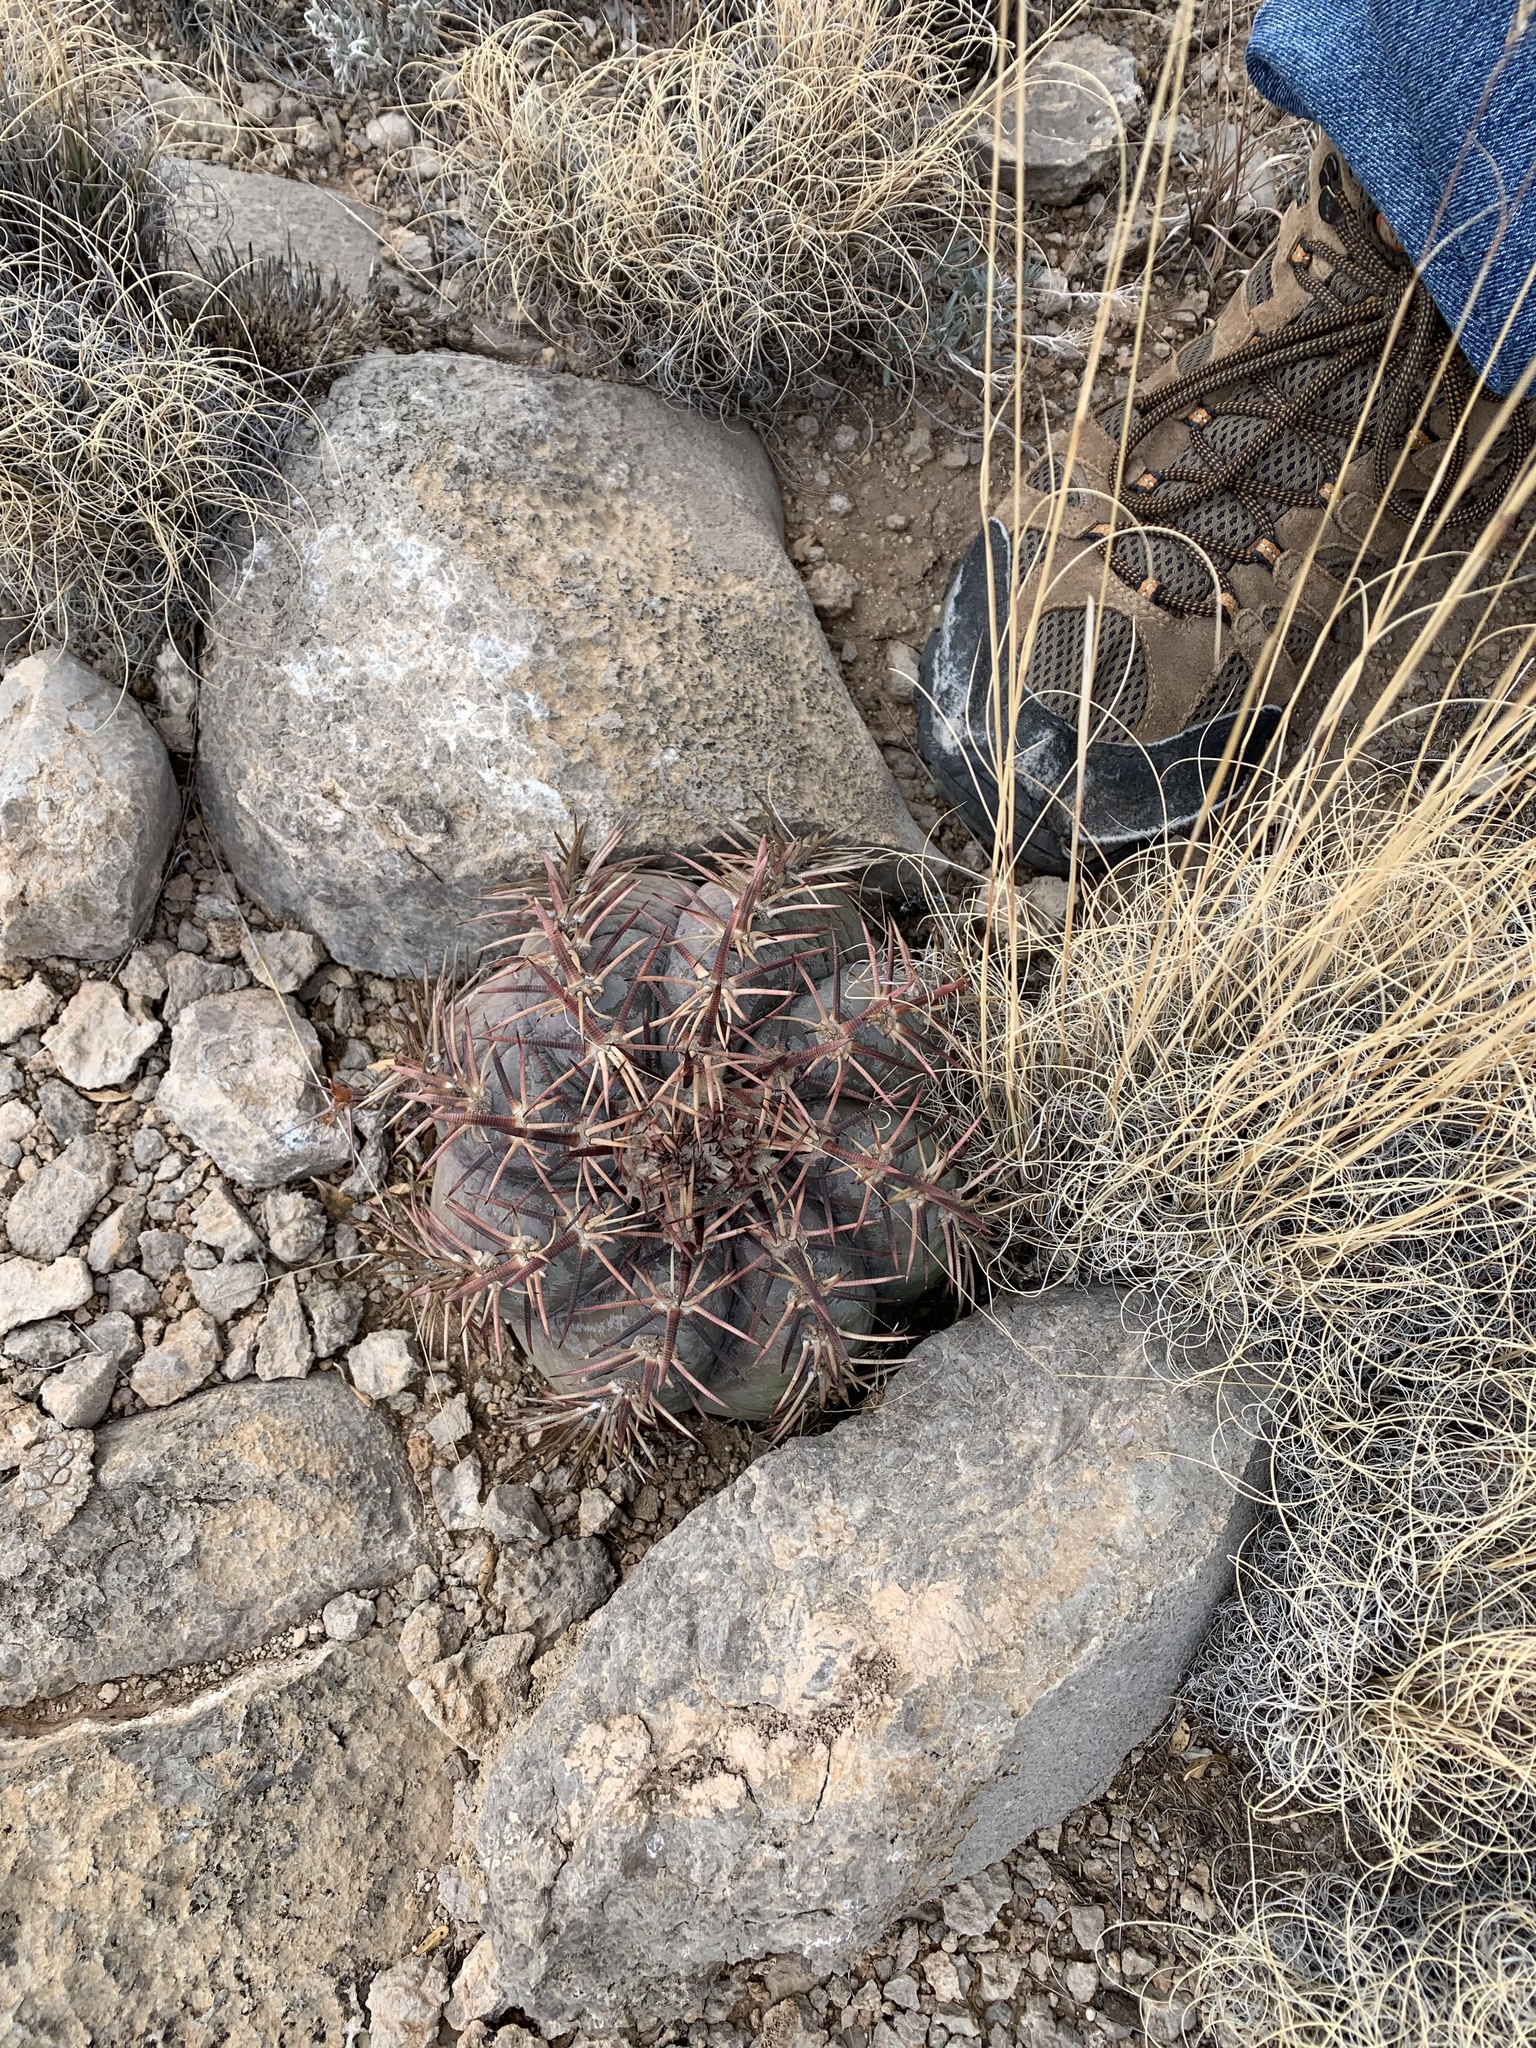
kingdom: Plantae
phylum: Tracheophyta
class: Magnoliopsida
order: Caryophyllales
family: Cactaceae
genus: Echinocactus
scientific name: Echinocactus horizonthalonius
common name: Devilshead
